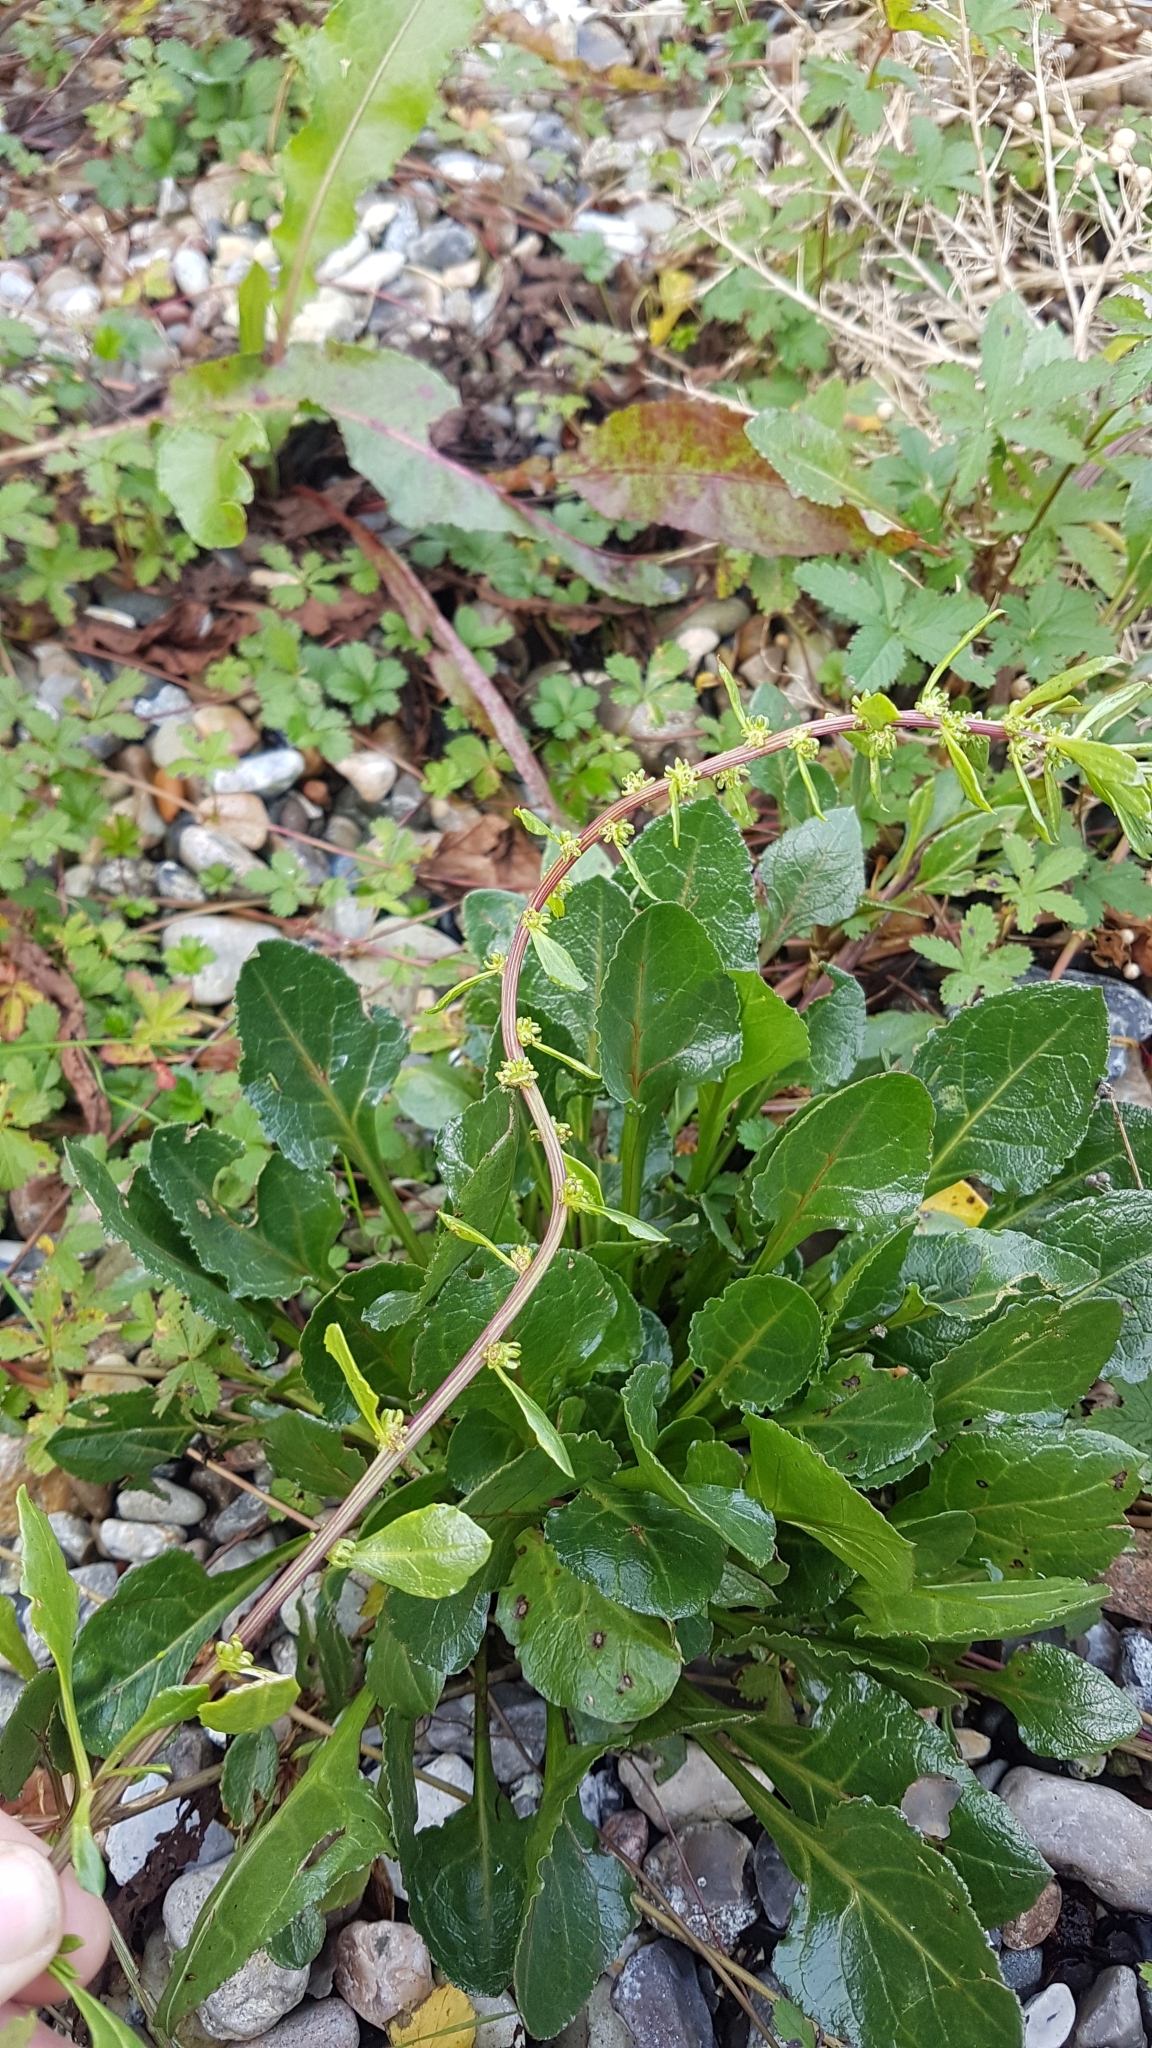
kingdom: Plantae
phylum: Tracheophyta
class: Magnoliopsida
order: Caryophyllales
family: Amaranthaceae
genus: Beta
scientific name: Beta vulgaris
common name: Beet
